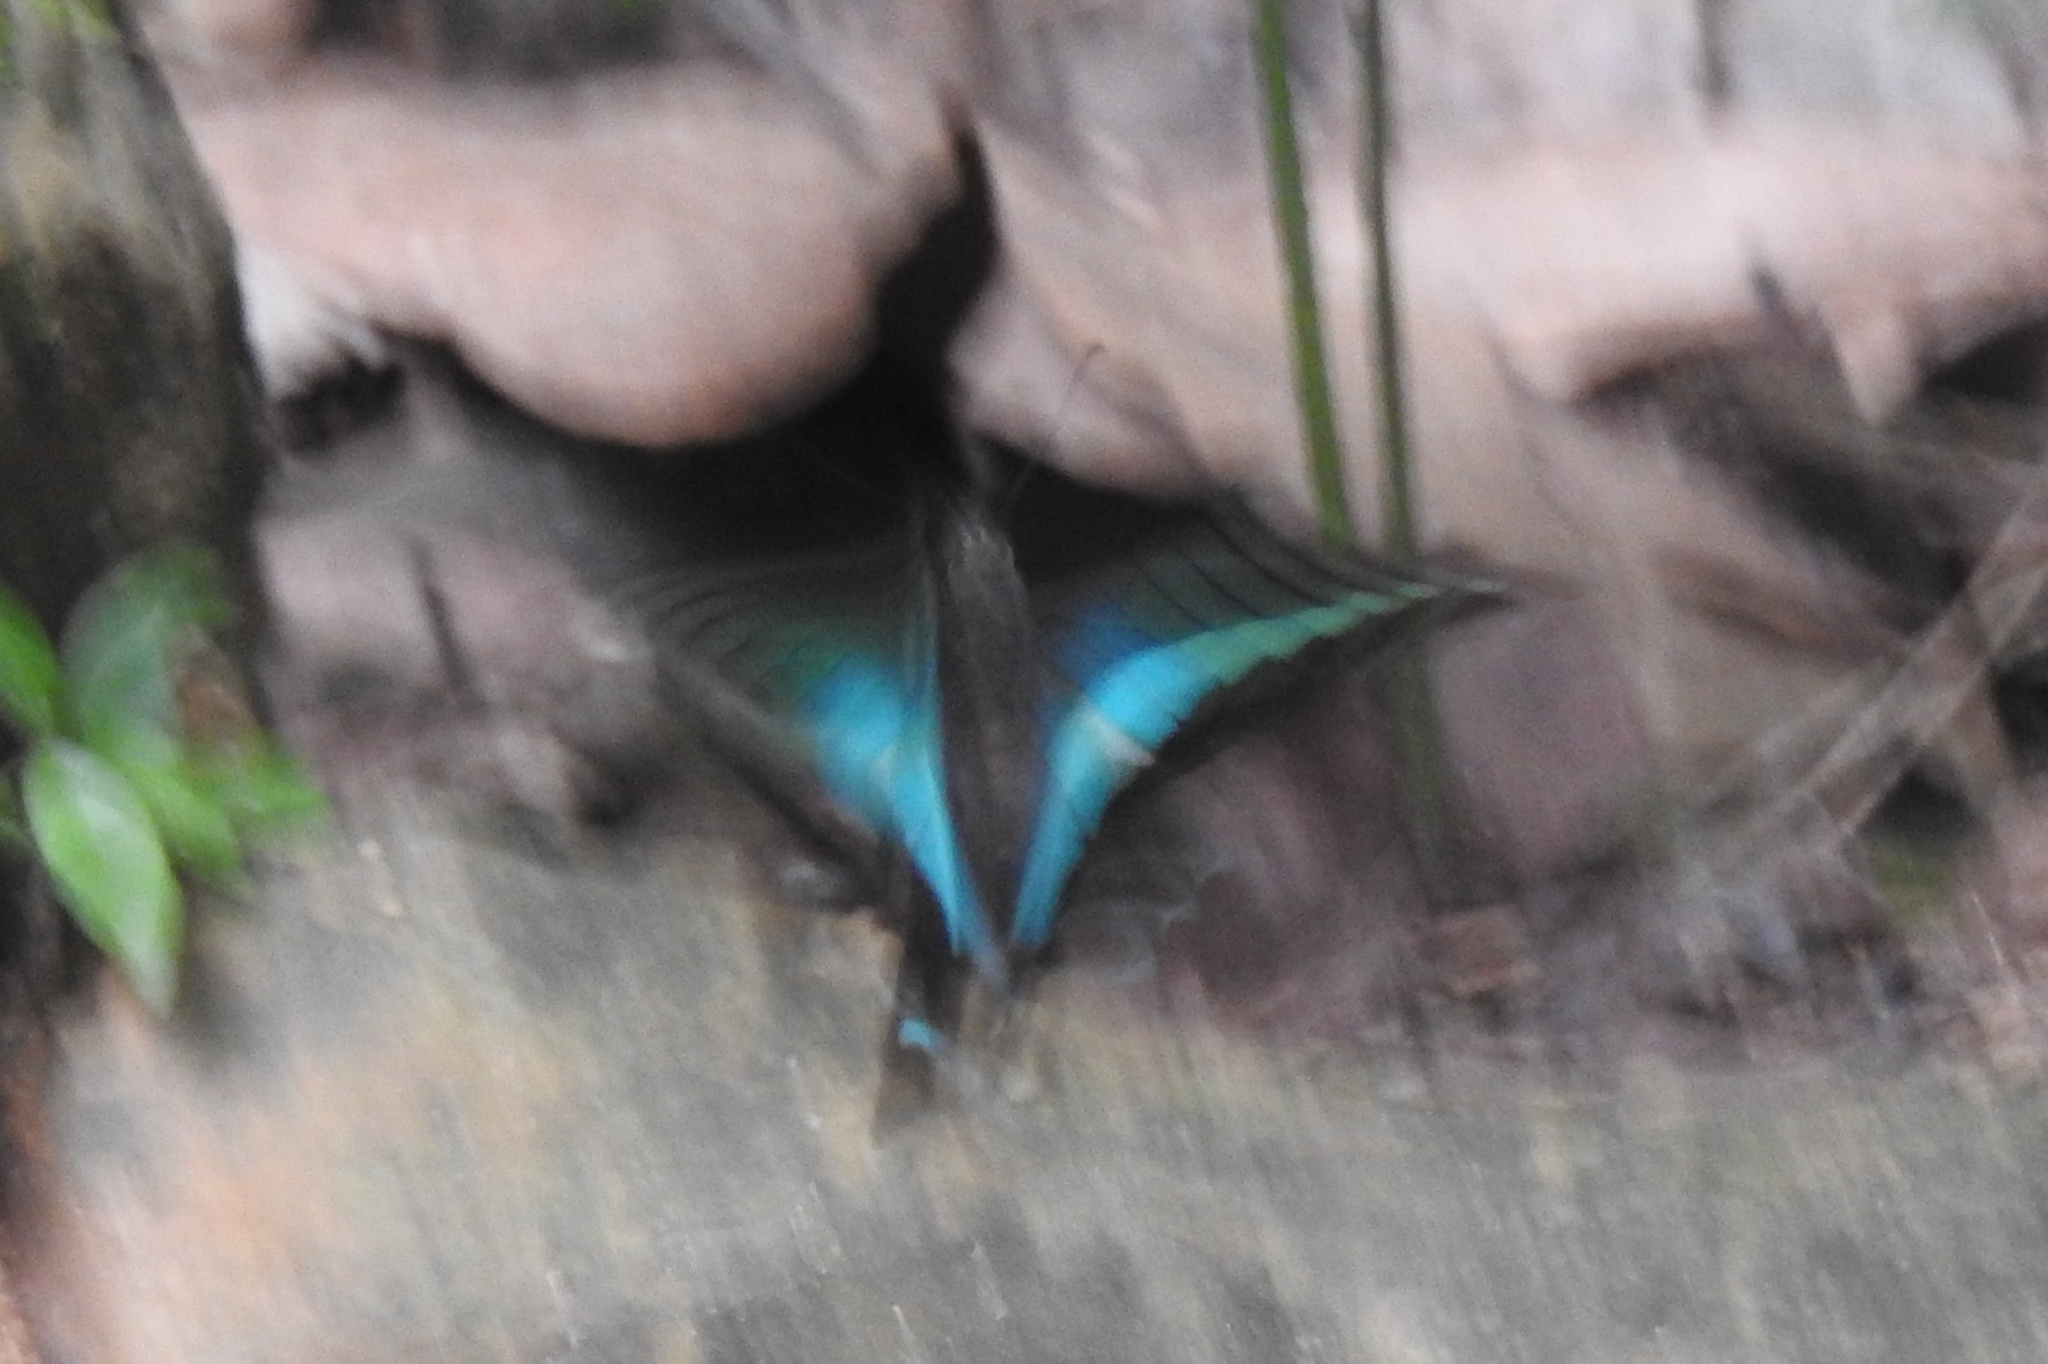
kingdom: Animalia
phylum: Arthropoda
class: Insecta
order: Lepidoptera
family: Papilionidae
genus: Graphium
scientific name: Graphium
